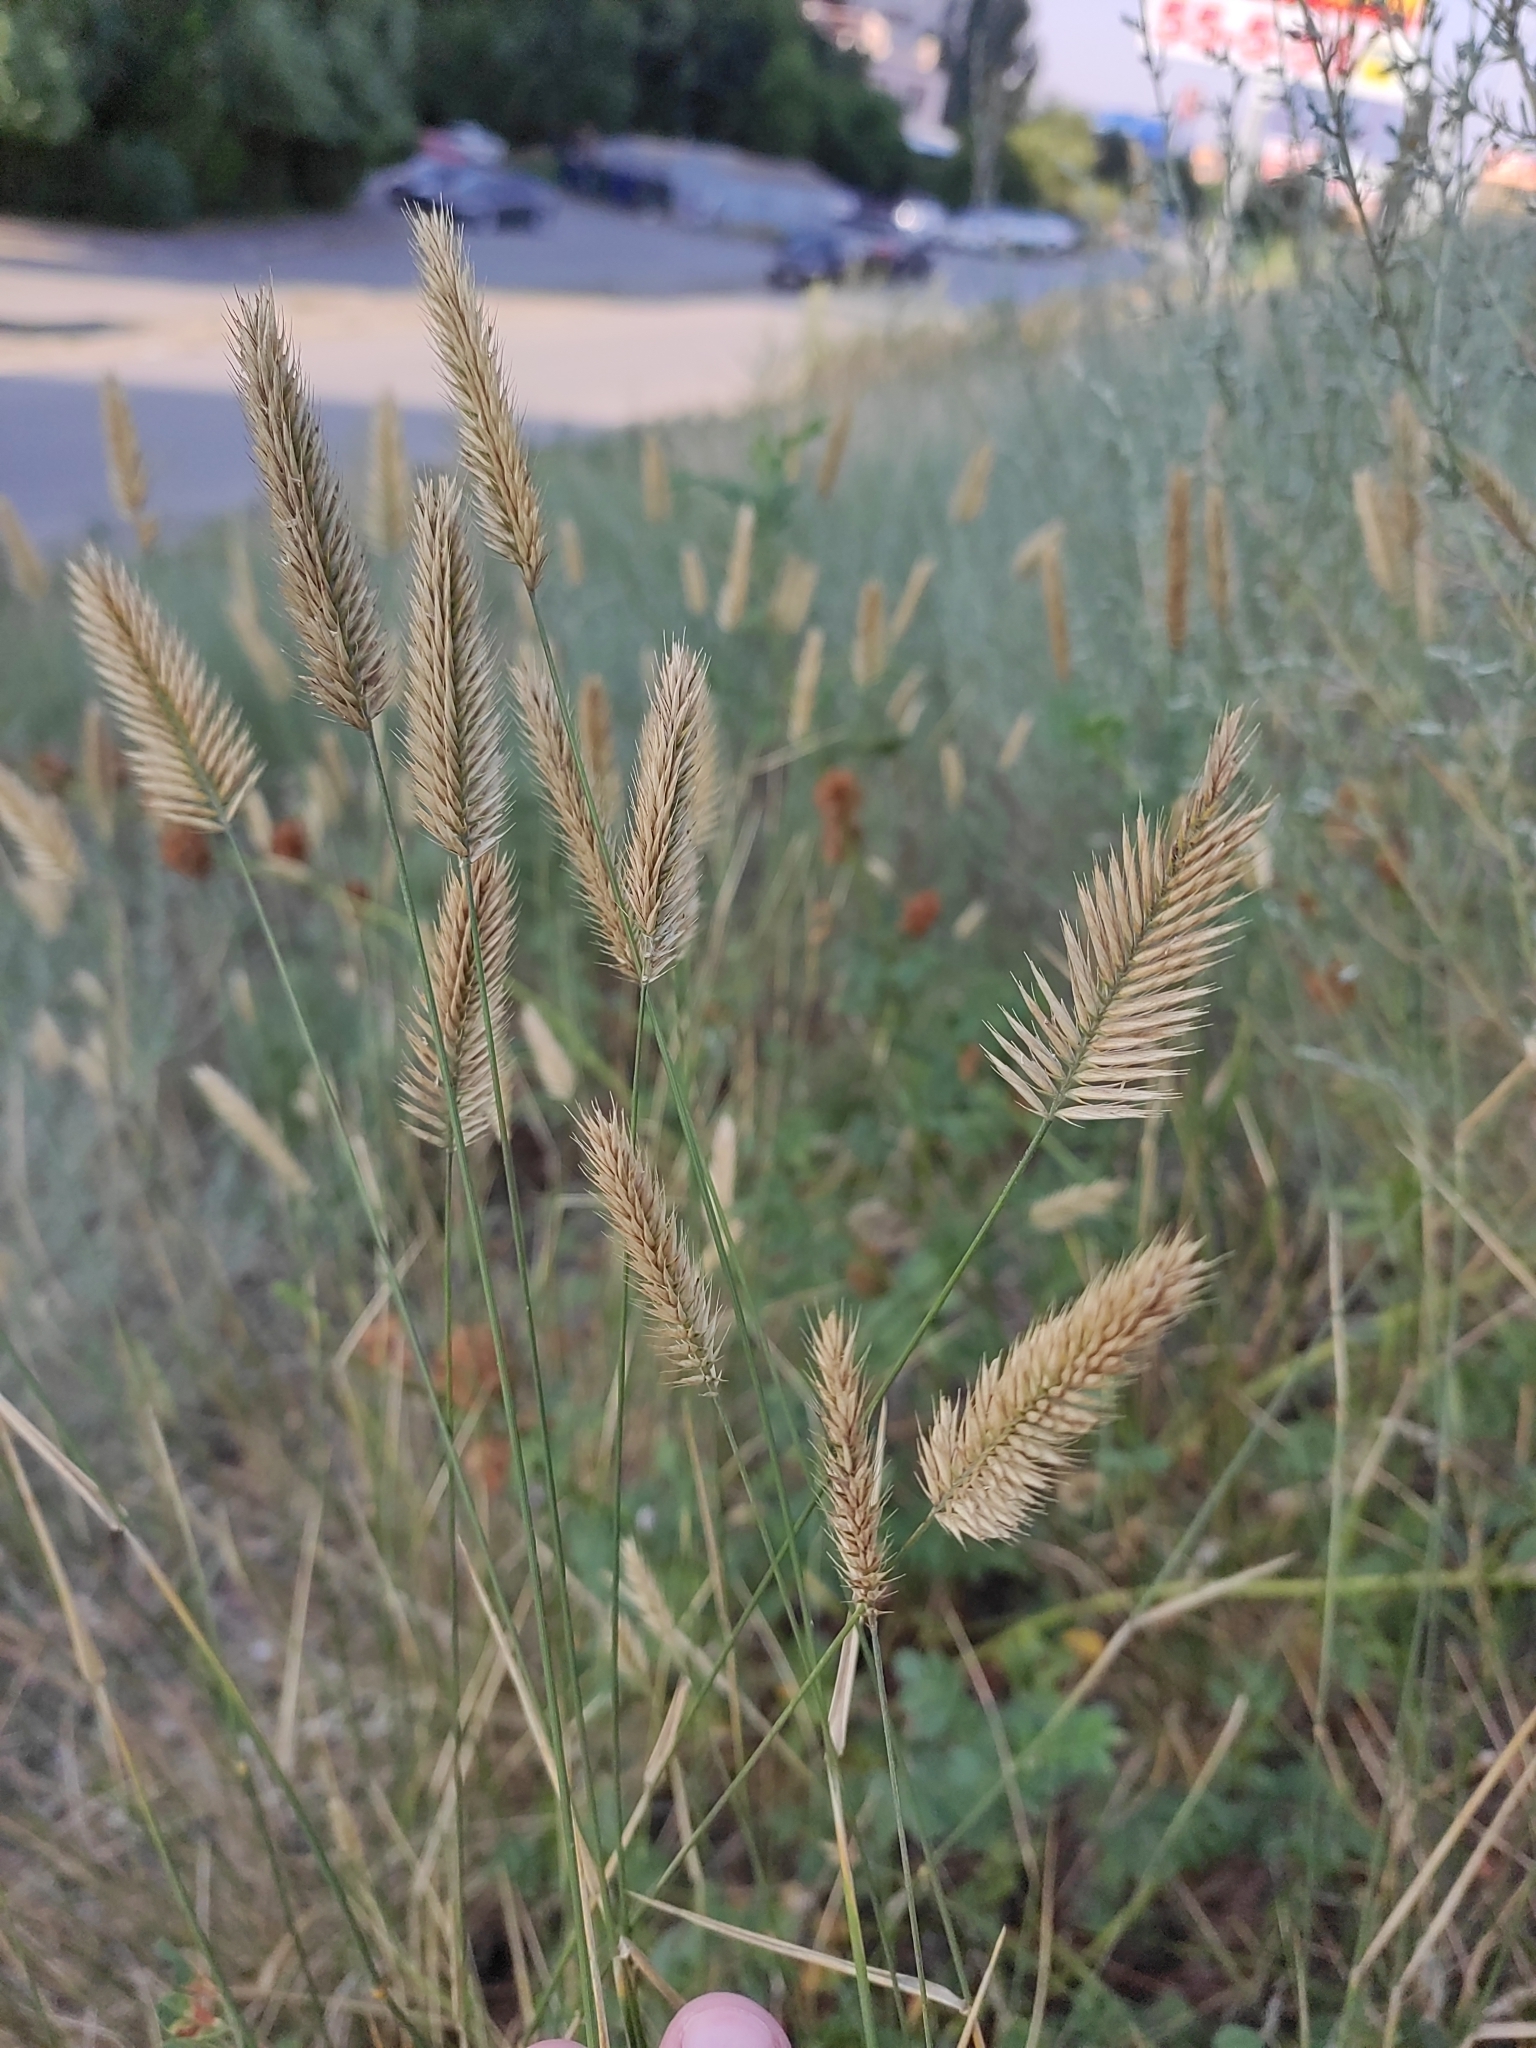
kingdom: Plantae
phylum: Tracheophyta
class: Liliopsida
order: Poales
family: Poaceae
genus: Agropyron
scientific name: Agropyron cristatum
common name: Crested wheatgrass
